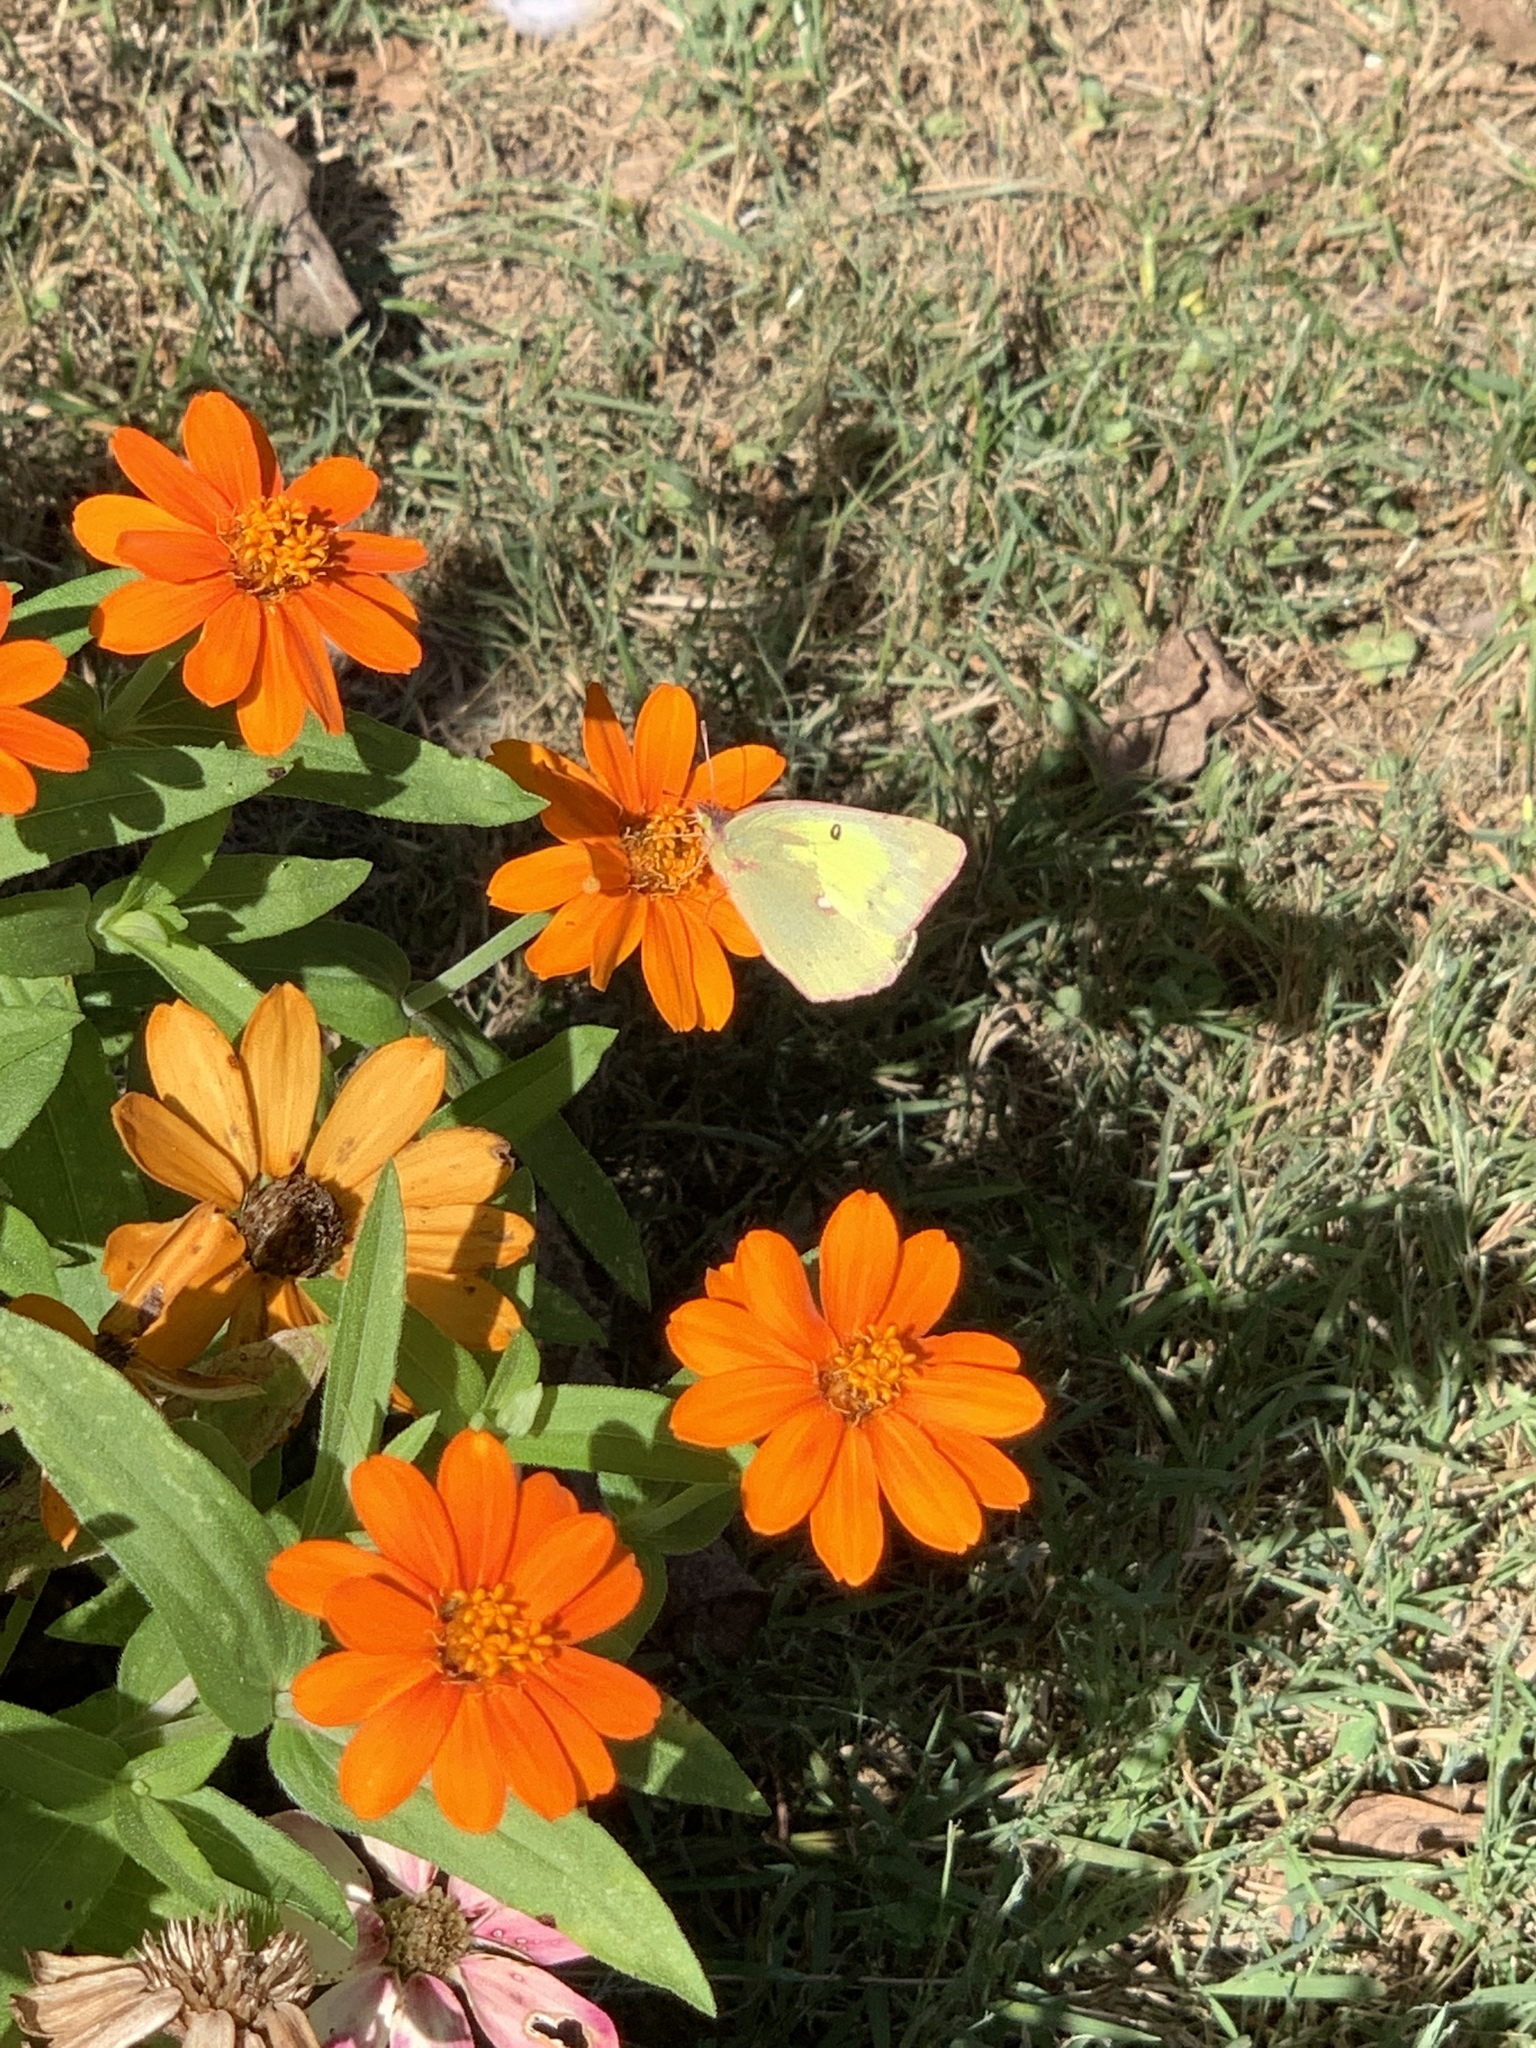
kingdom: Animalia
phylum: Arthropoda
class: Insecta
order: Lepidoptera
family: Pieridae
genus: Colias
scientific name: Colias eurytheme
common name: Alfalfa butterfly
